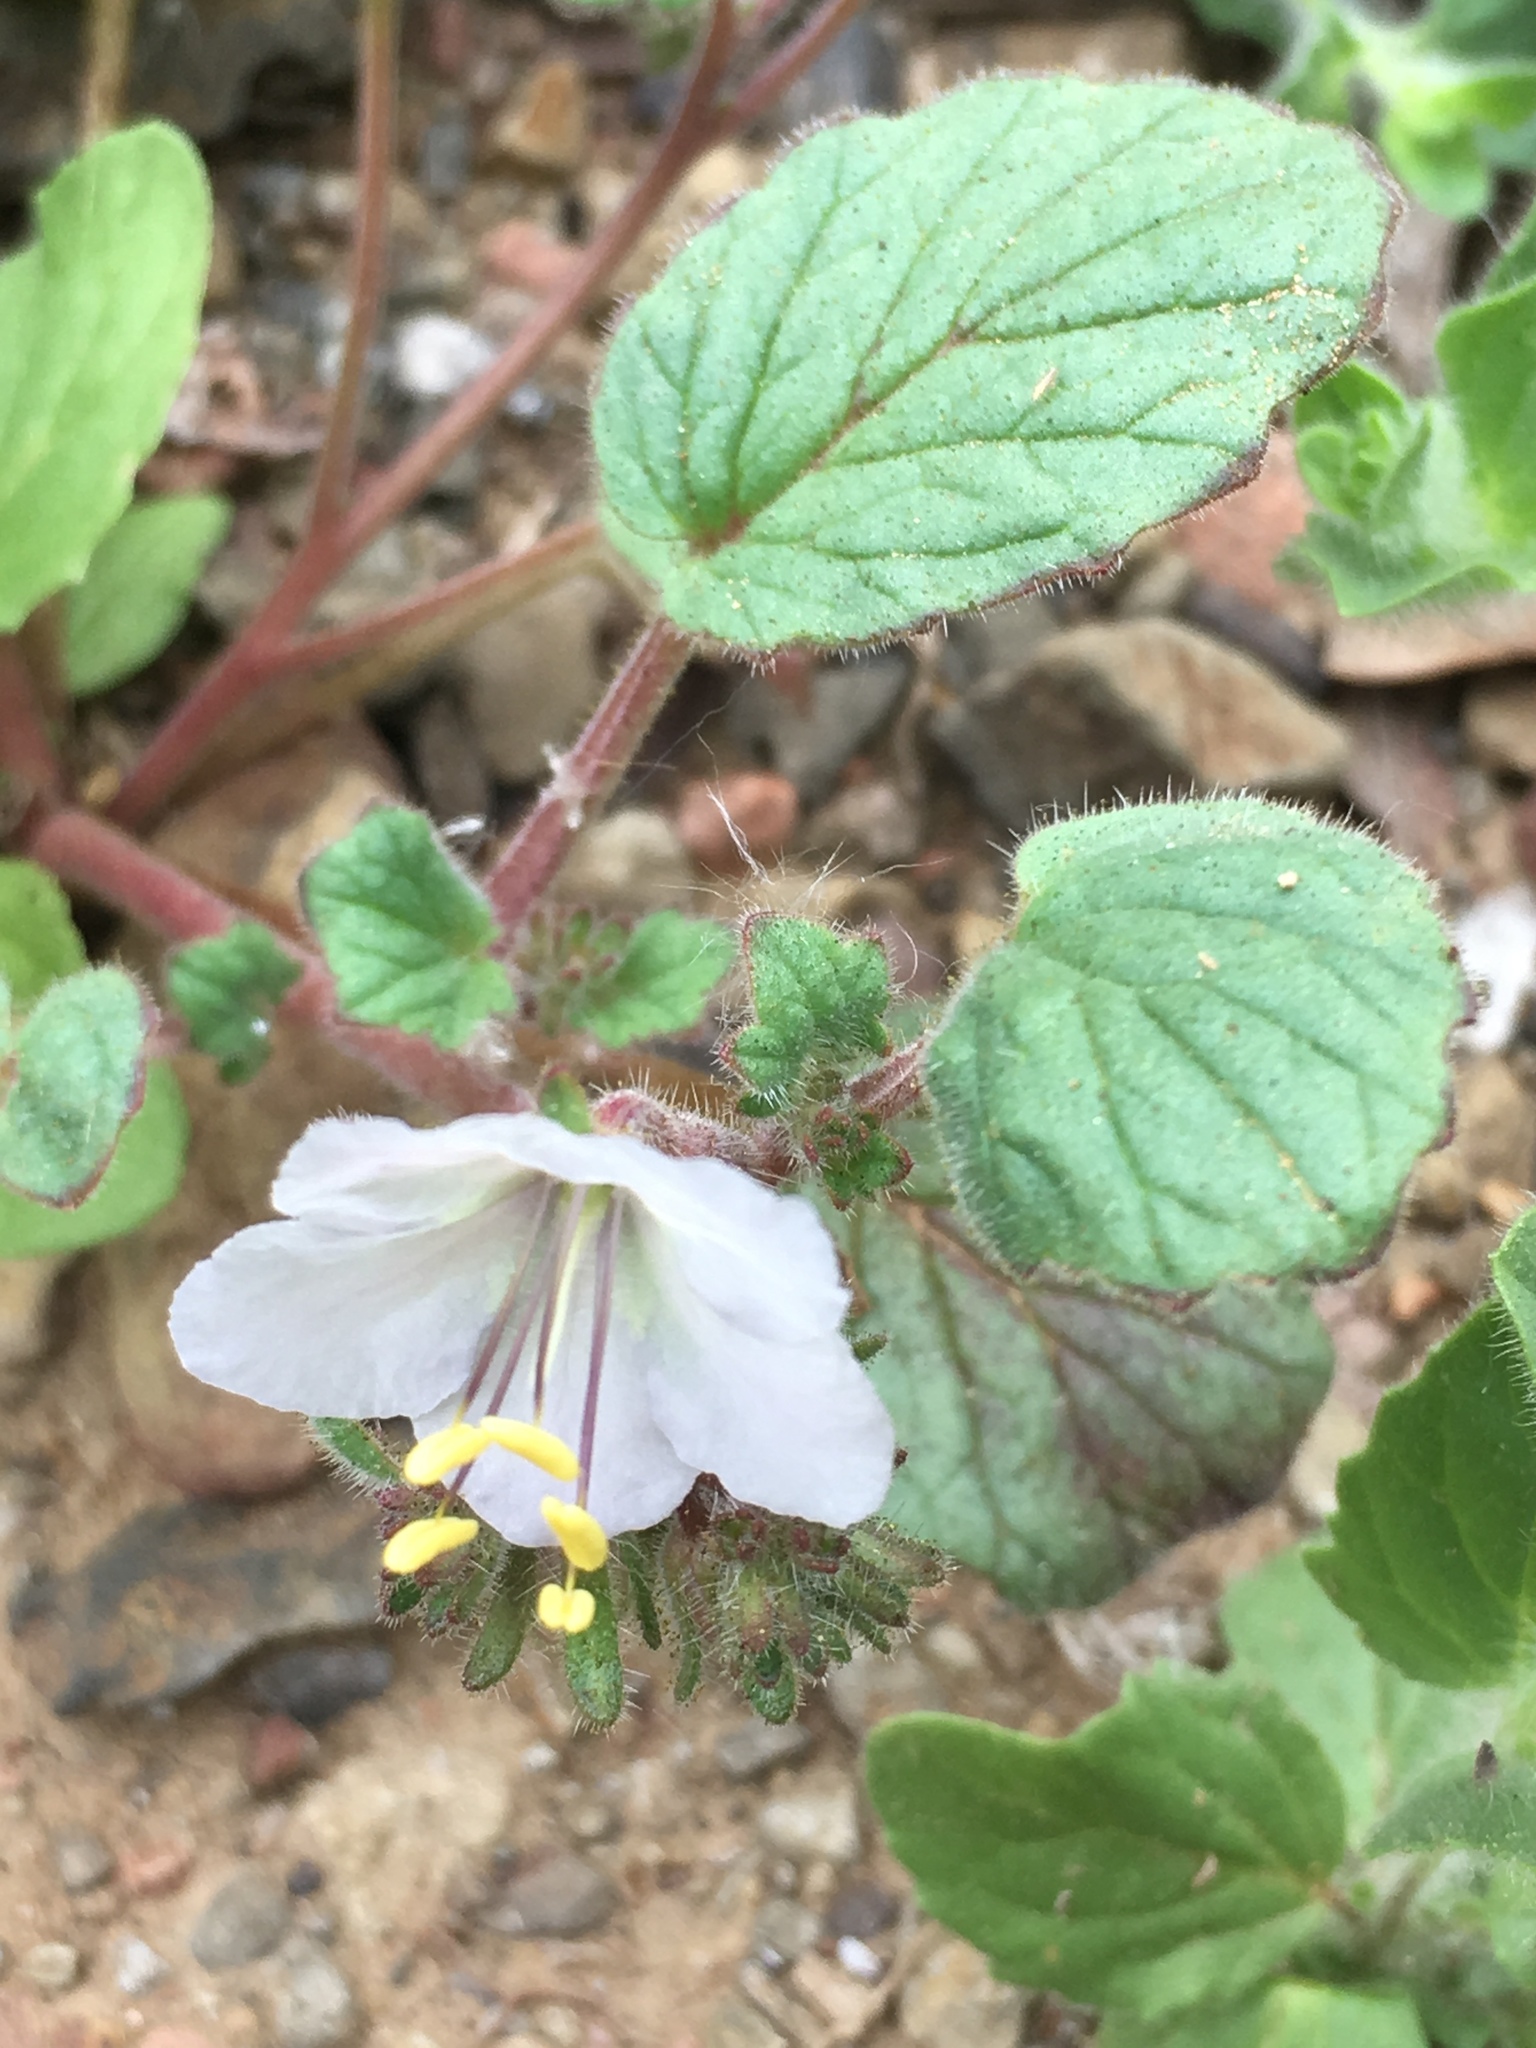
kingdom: Plantae
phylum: Tracheophyta
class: Magnoliopsida
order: Boraginales
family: Hydrophyllaceae
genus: Phacelia
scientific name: Phacelia longipes
